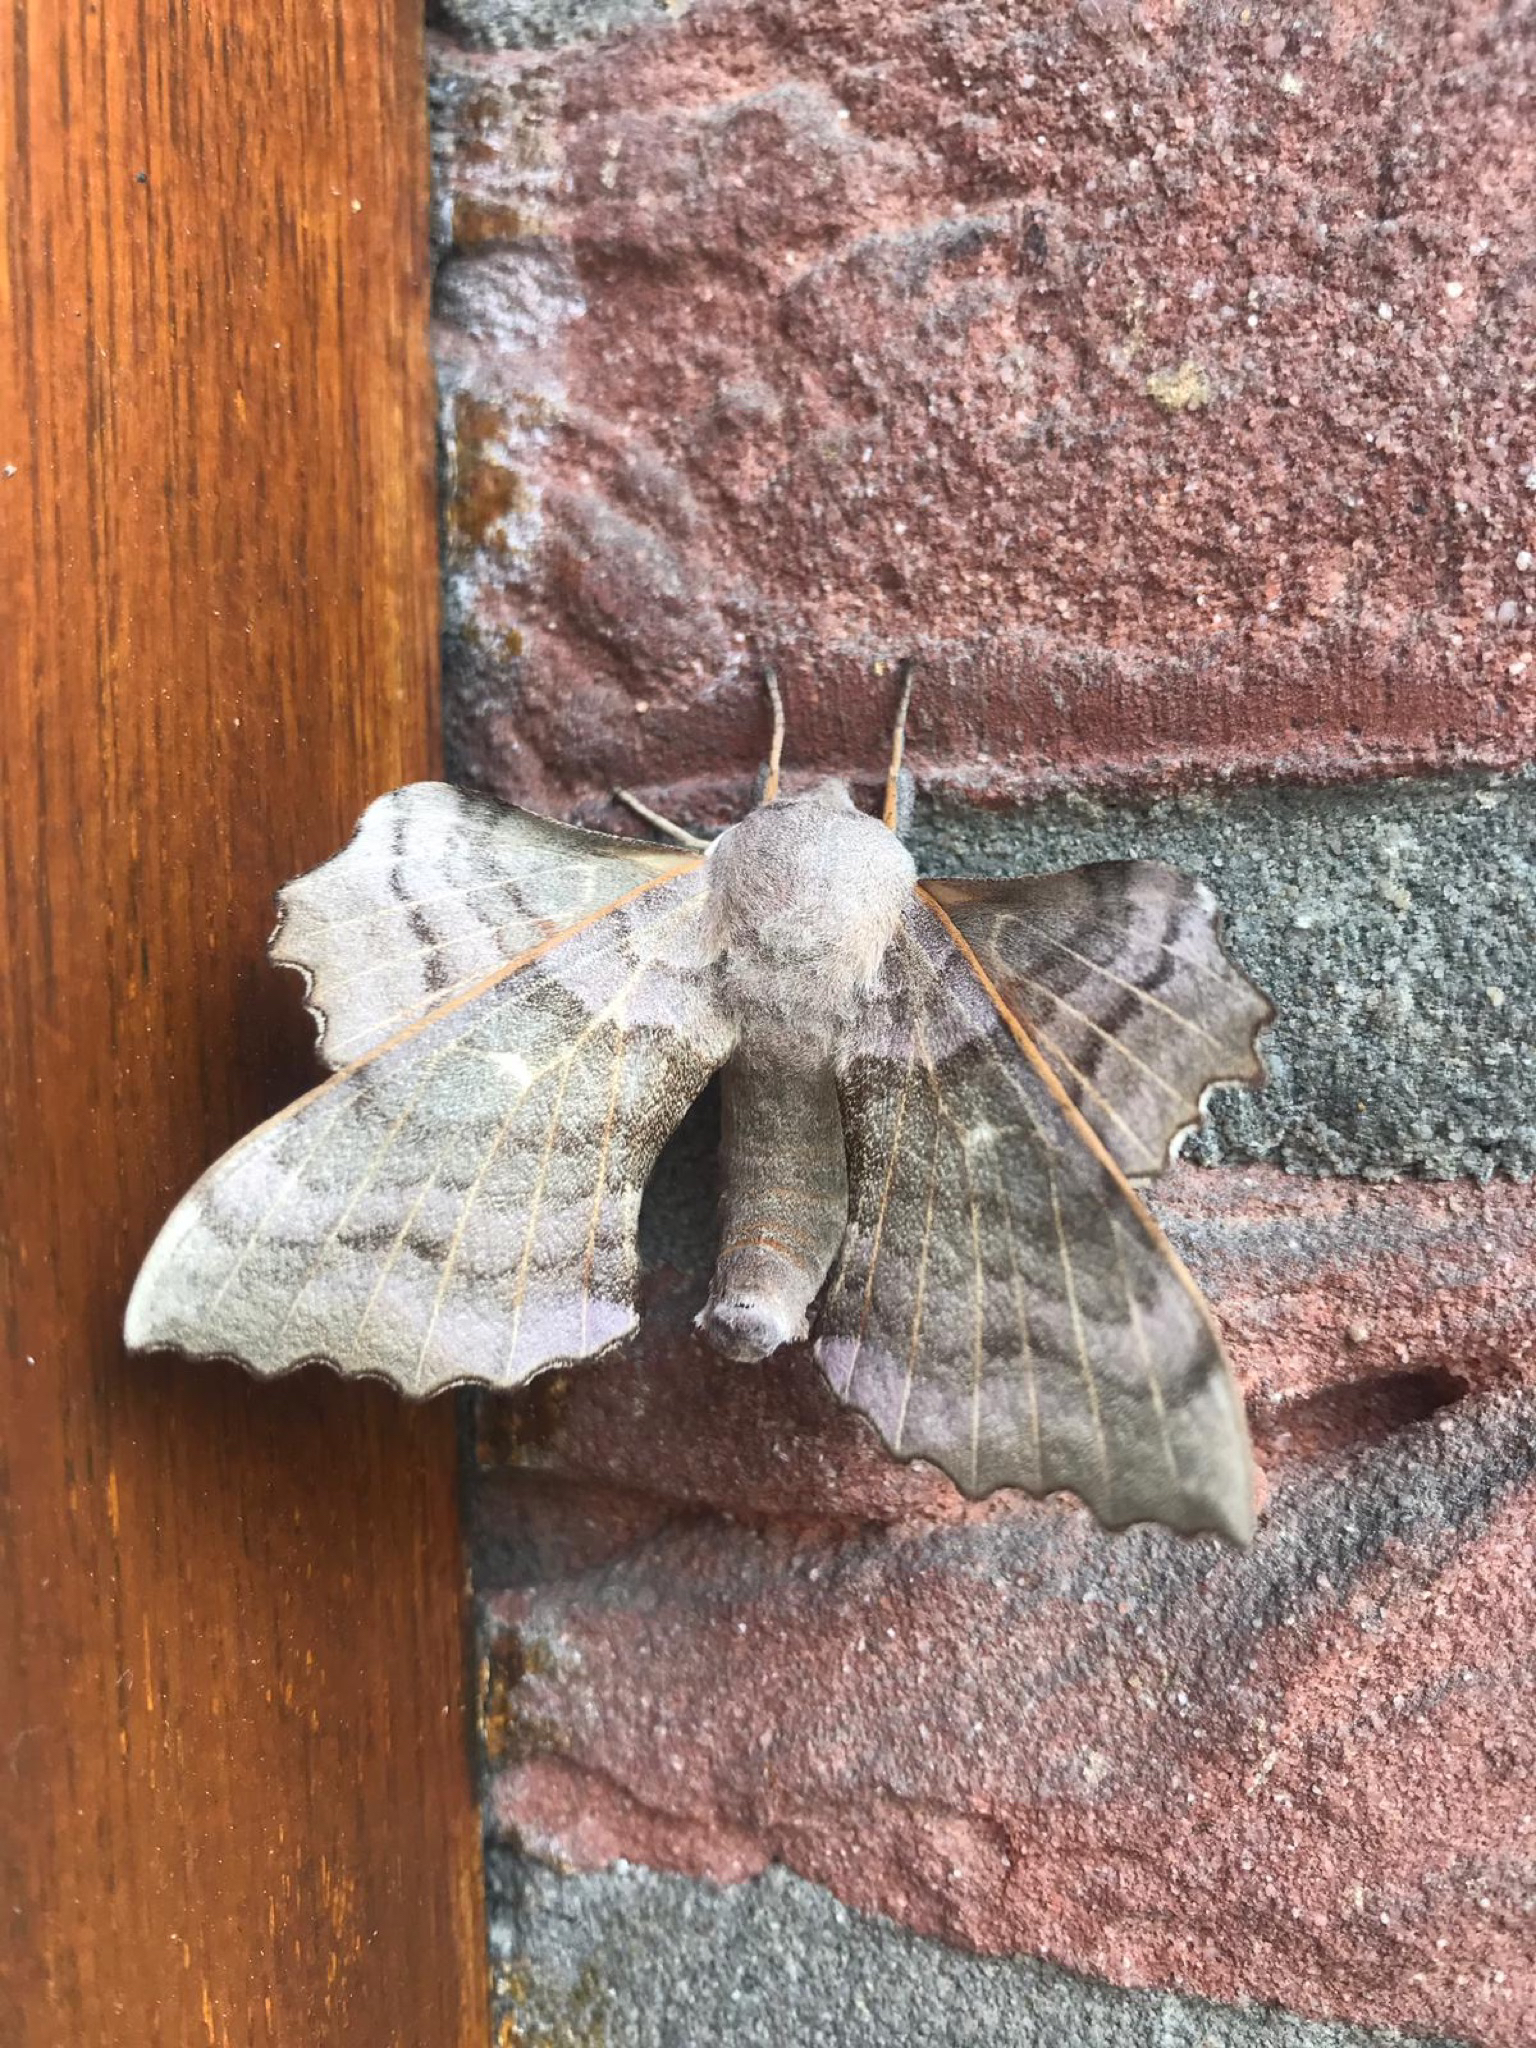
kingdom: Animalia
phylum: Arthropoda
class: Insecta
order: Lepidoptera
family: Sphingidae
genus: Laothoe
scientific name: Laothoe populi
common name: Poplar hawk-moth
